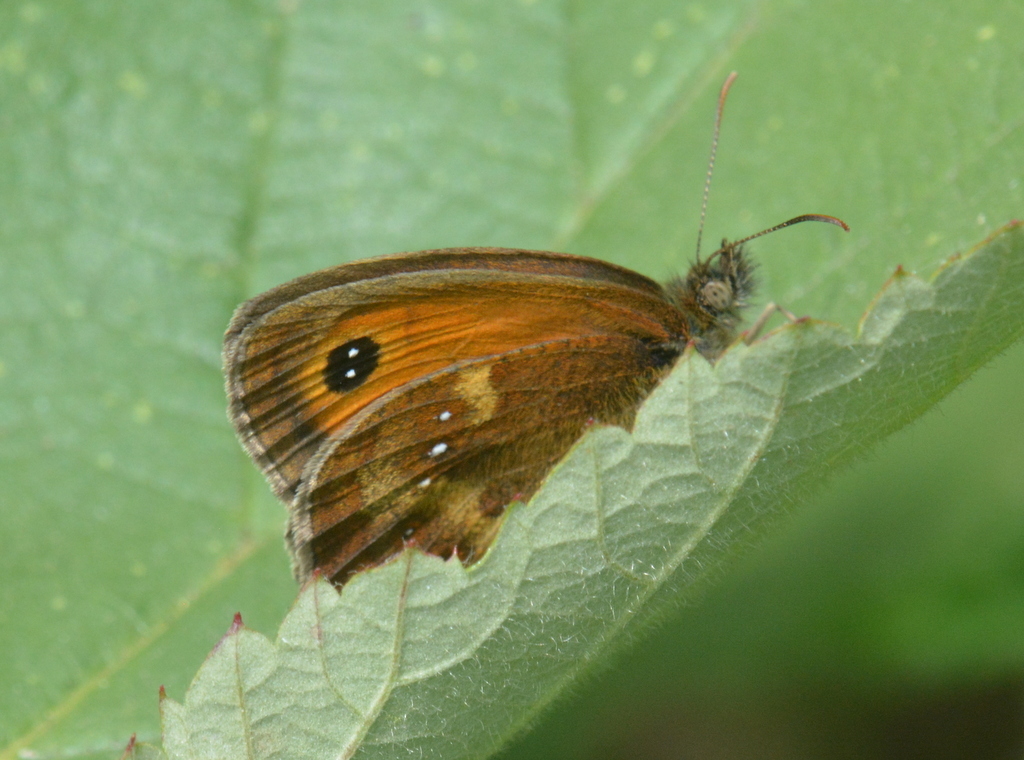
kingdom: Animalia
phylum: Arthropoda
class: Insecta
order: Lepidoptera
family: Nymphalidae
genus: Pyronia
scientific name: Pyronia tithonus
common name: Gatekeeper
